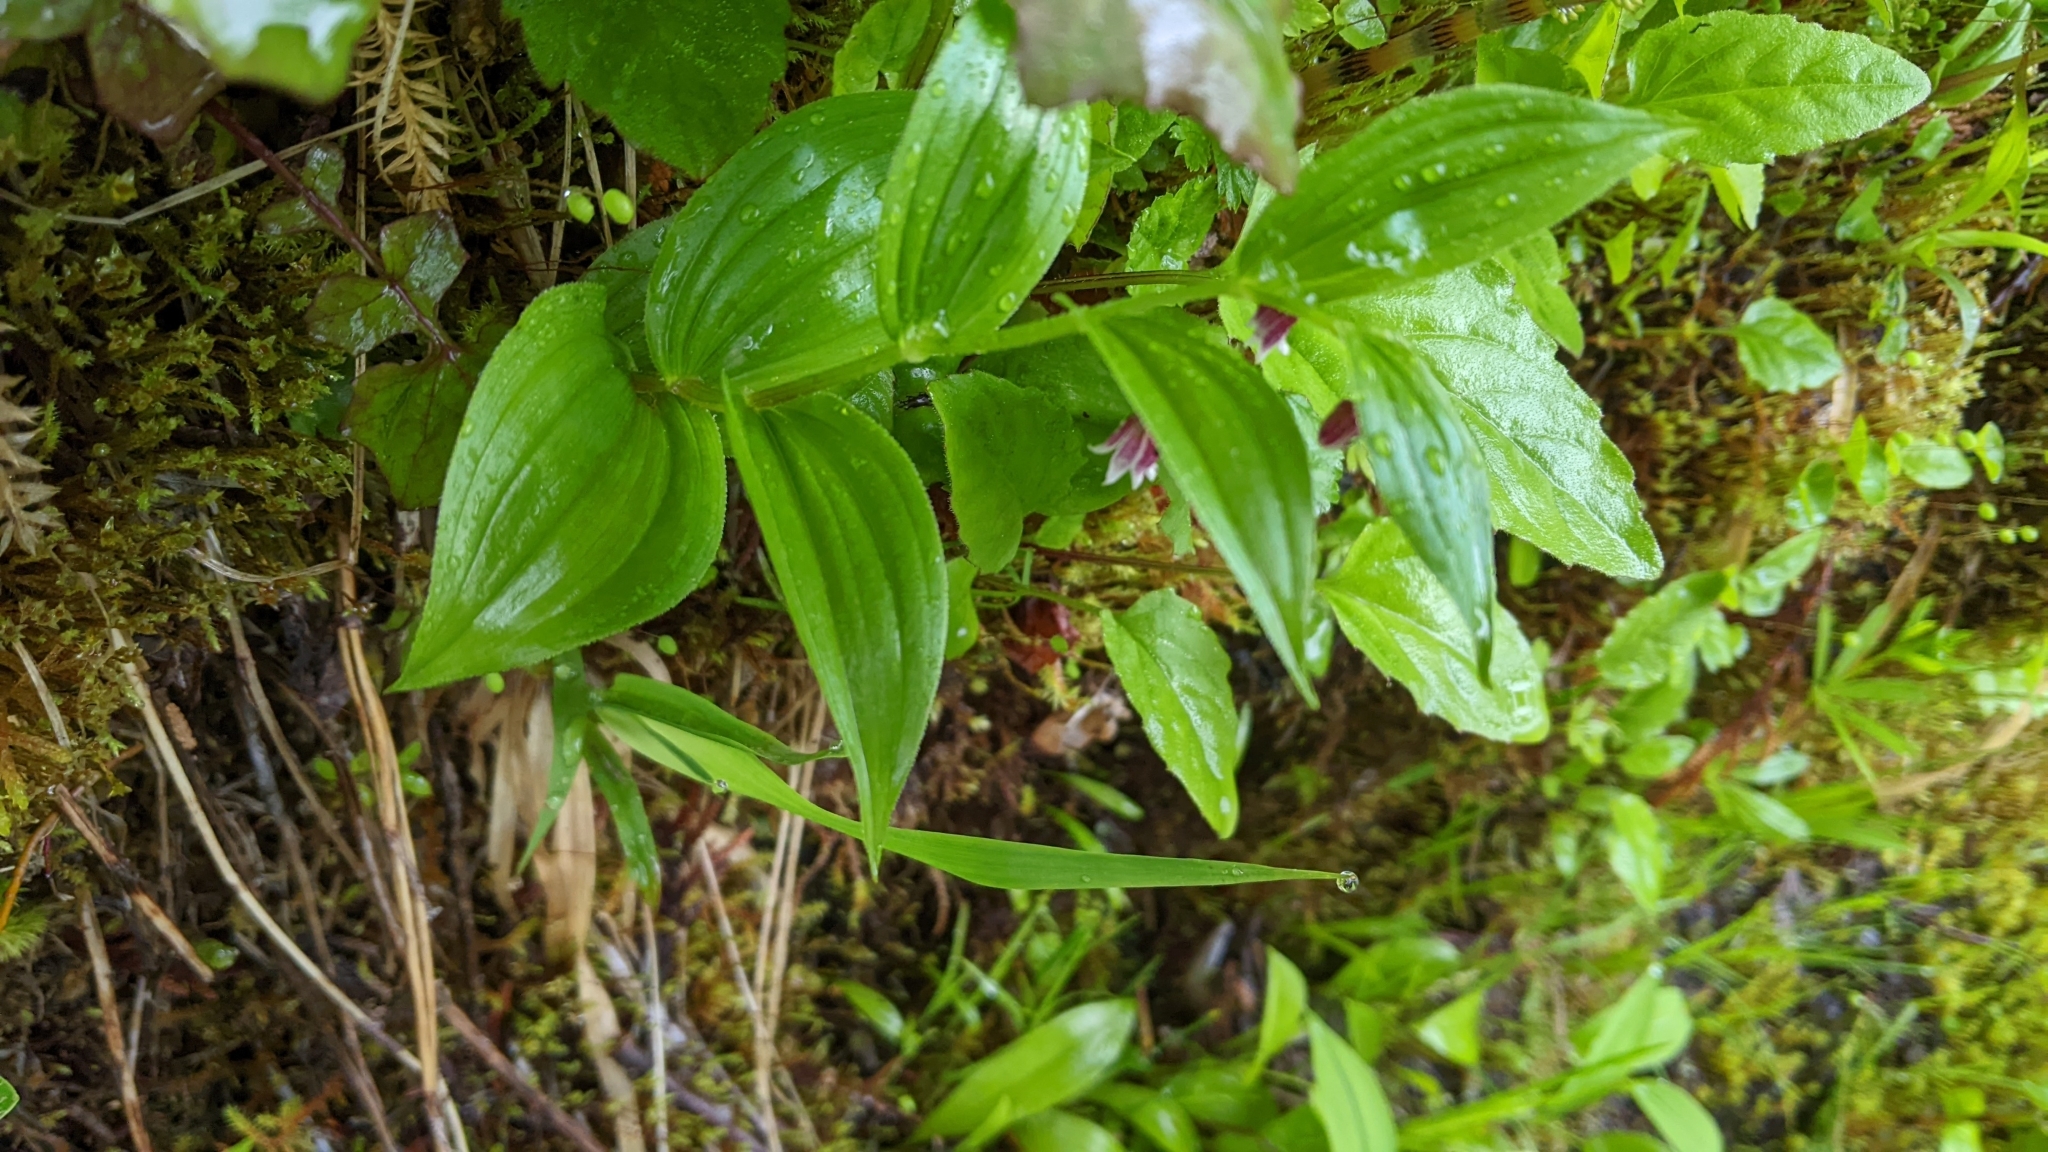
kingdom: Plantae
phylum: Tracheophyta
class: Liliopsida
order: Liliales
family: Liliaceae
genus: Streptopus
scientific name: Streptopus lanceolatus
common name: Rose mandarin
